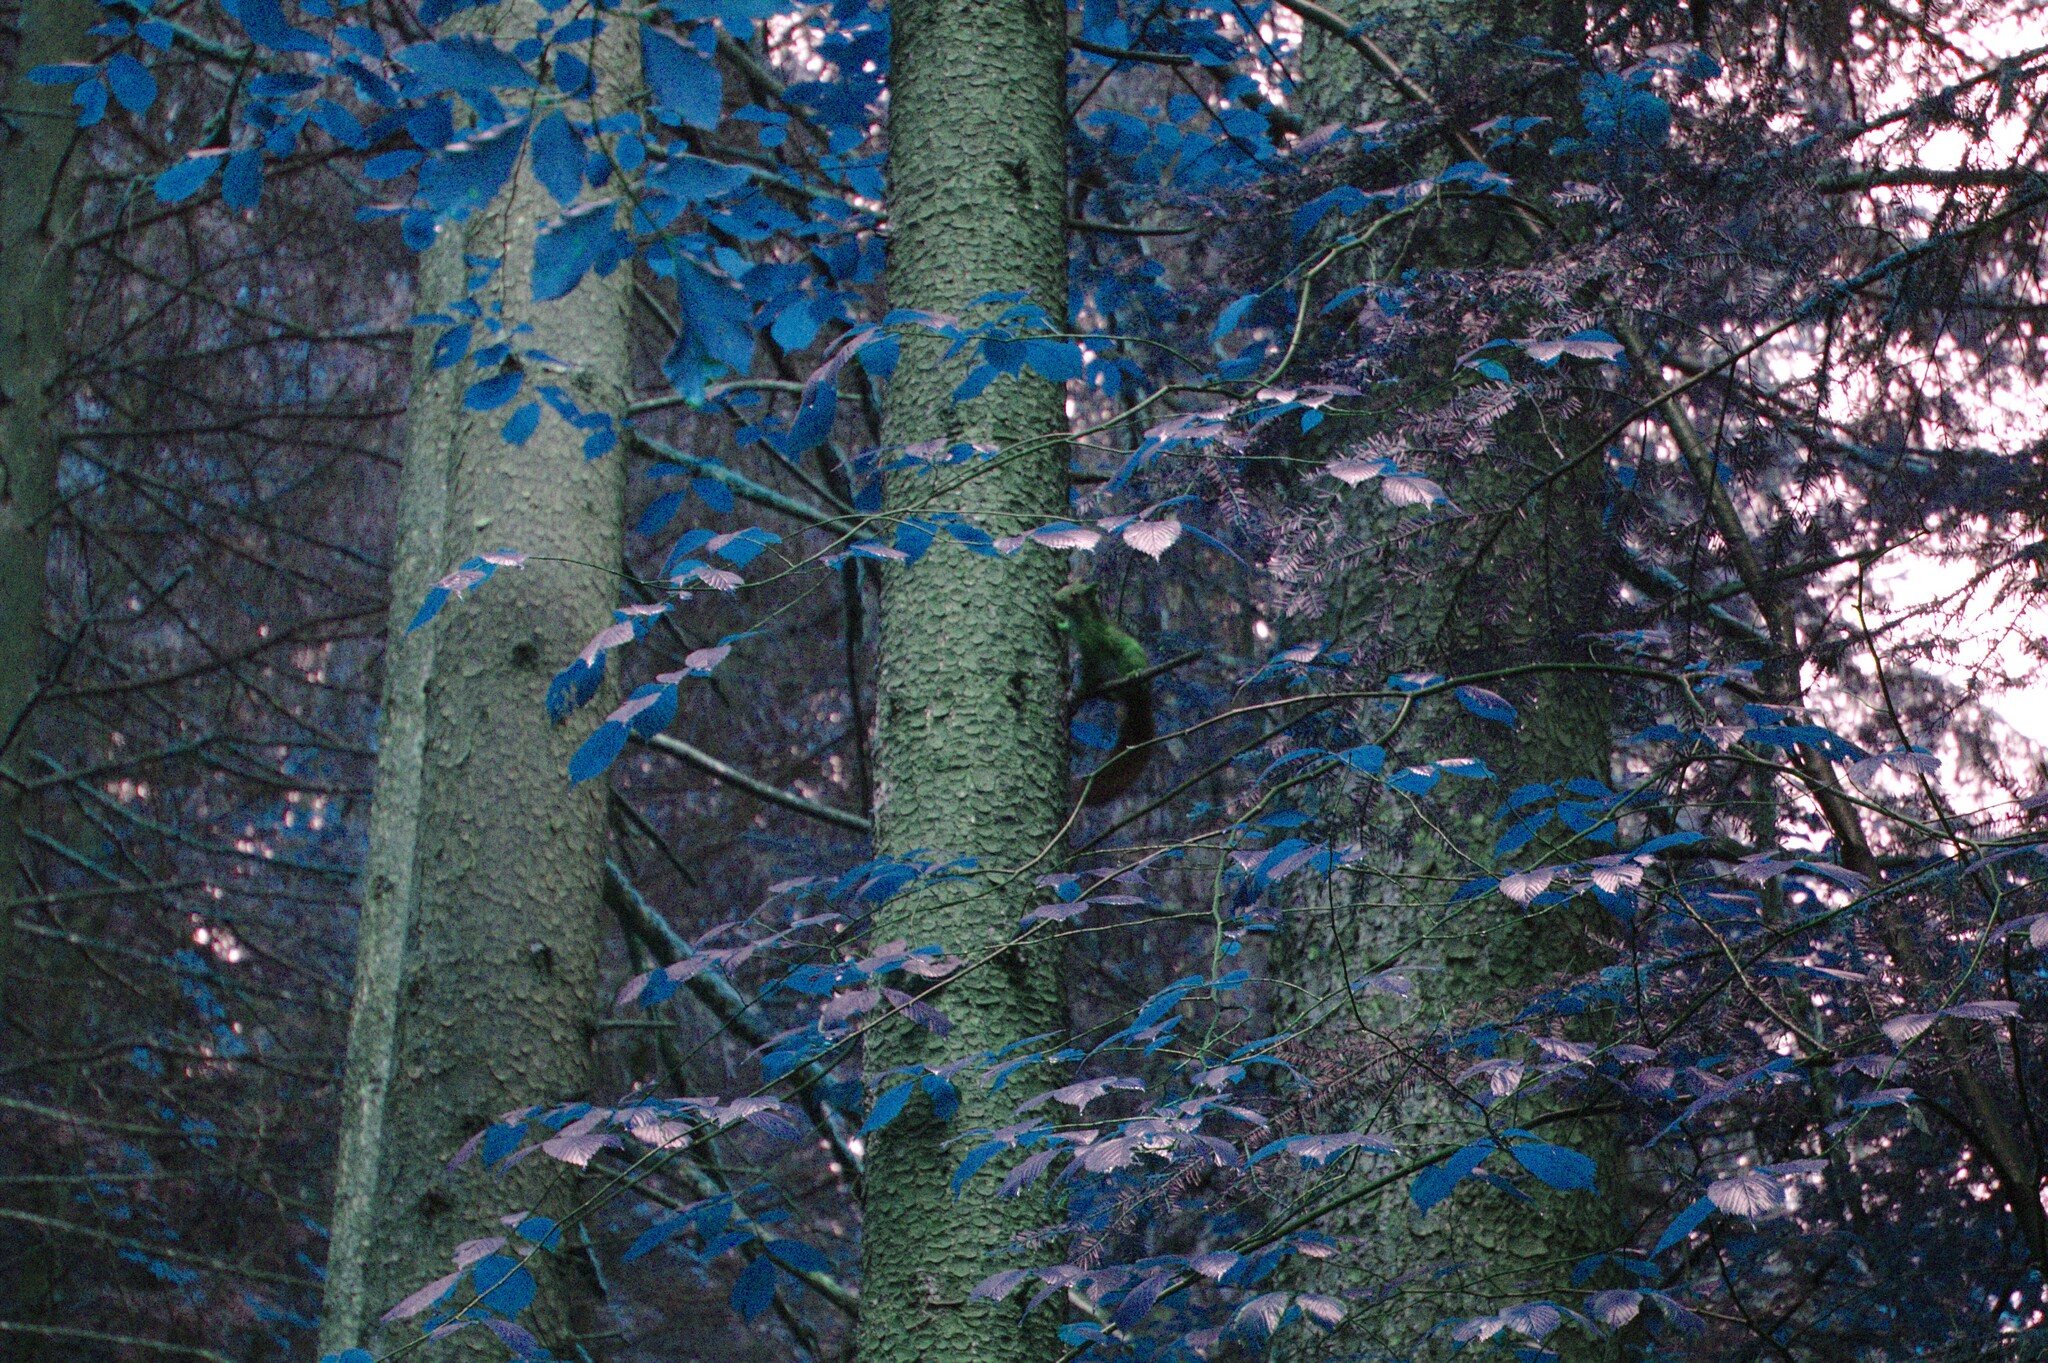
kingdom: Animalia
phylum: Chordata
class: Mammalia
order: Rodentia
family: Sciuridae
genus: Sciurus
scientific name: Sciurus vulgaris
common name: Eurasian red squirrel
